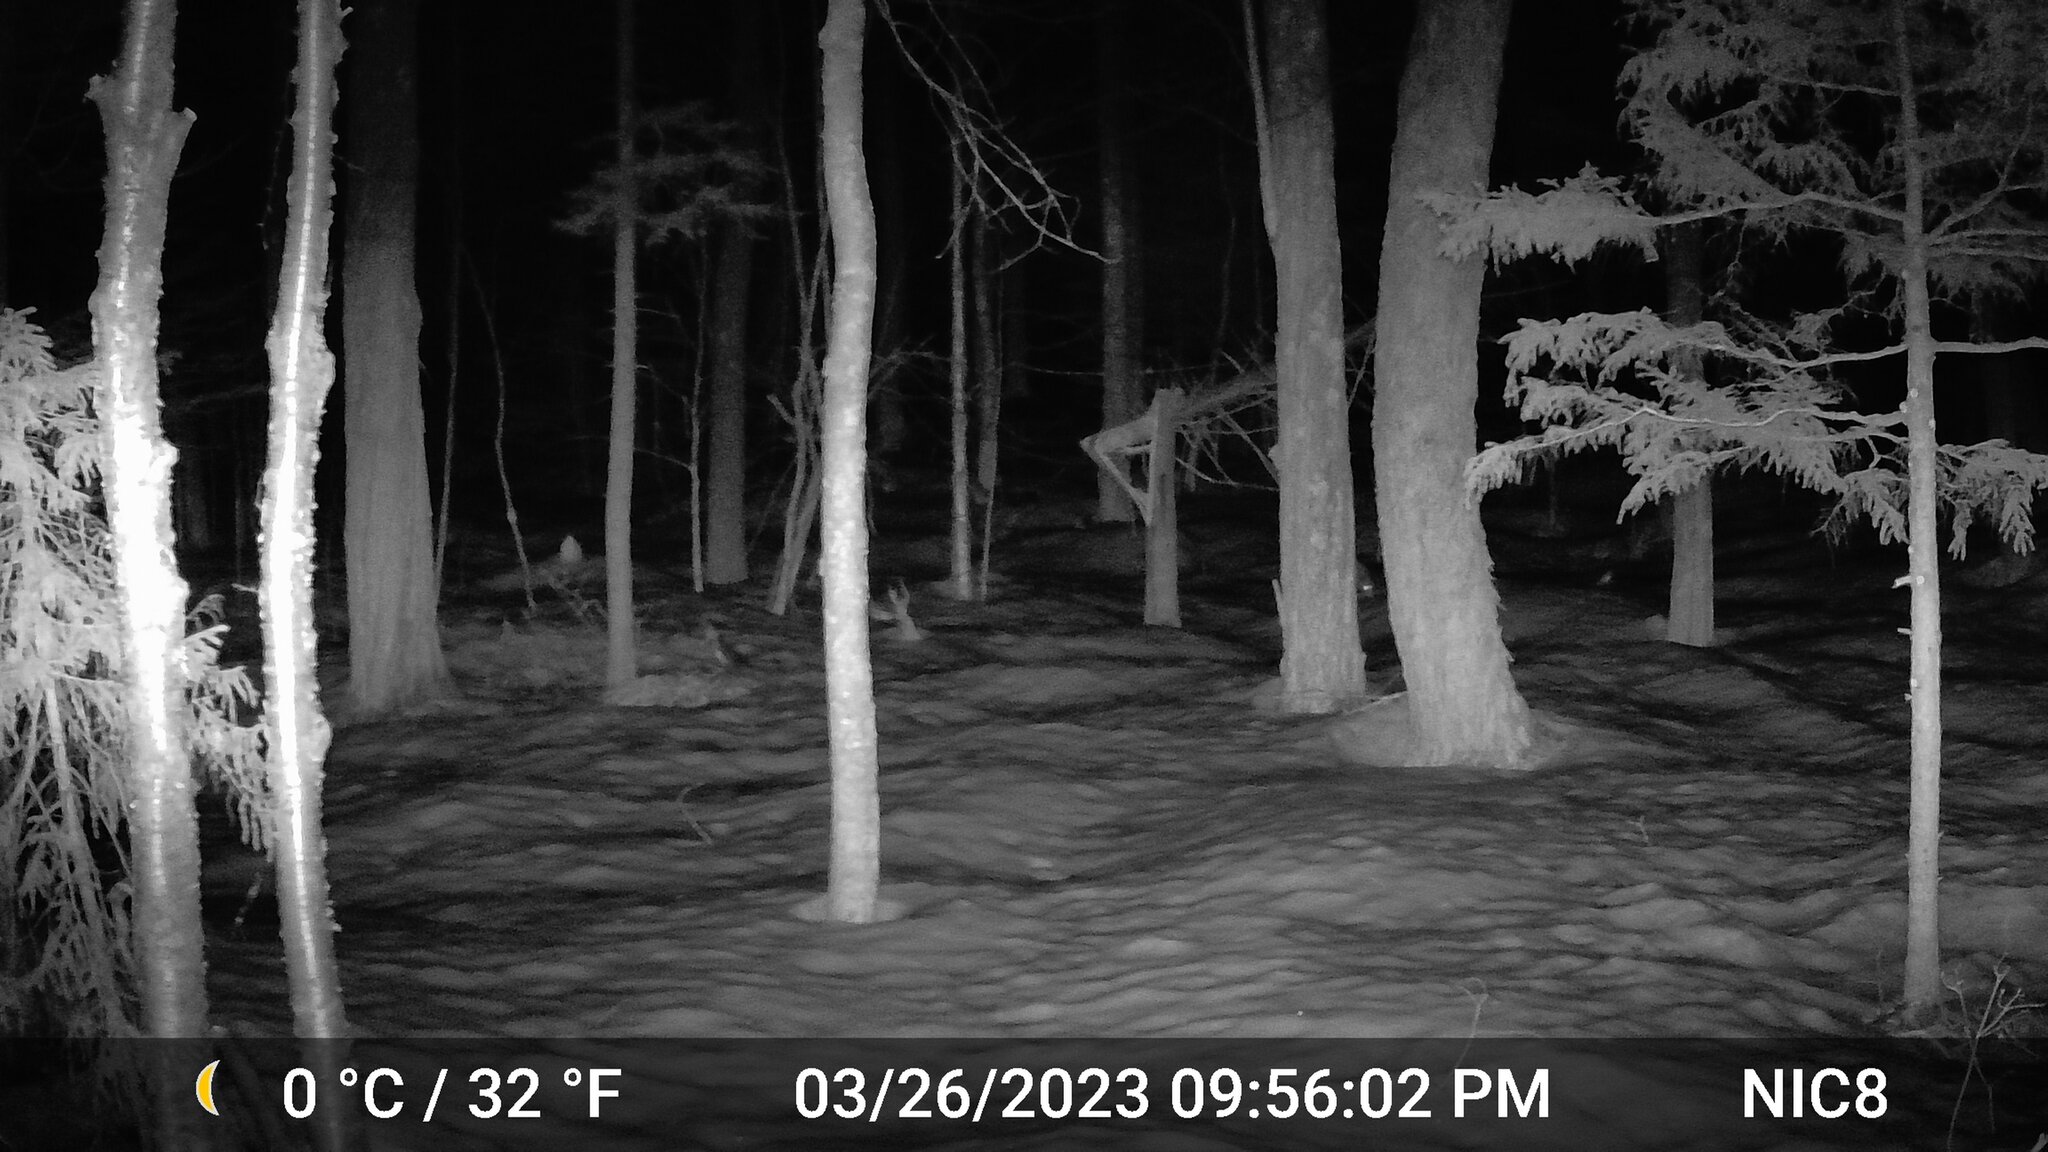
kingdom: Animalia
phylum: Chordata
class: Mammalia
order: Carnivora
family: Canidae
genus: Vulpes
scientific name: Vulpes vulpes
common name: Red fox
